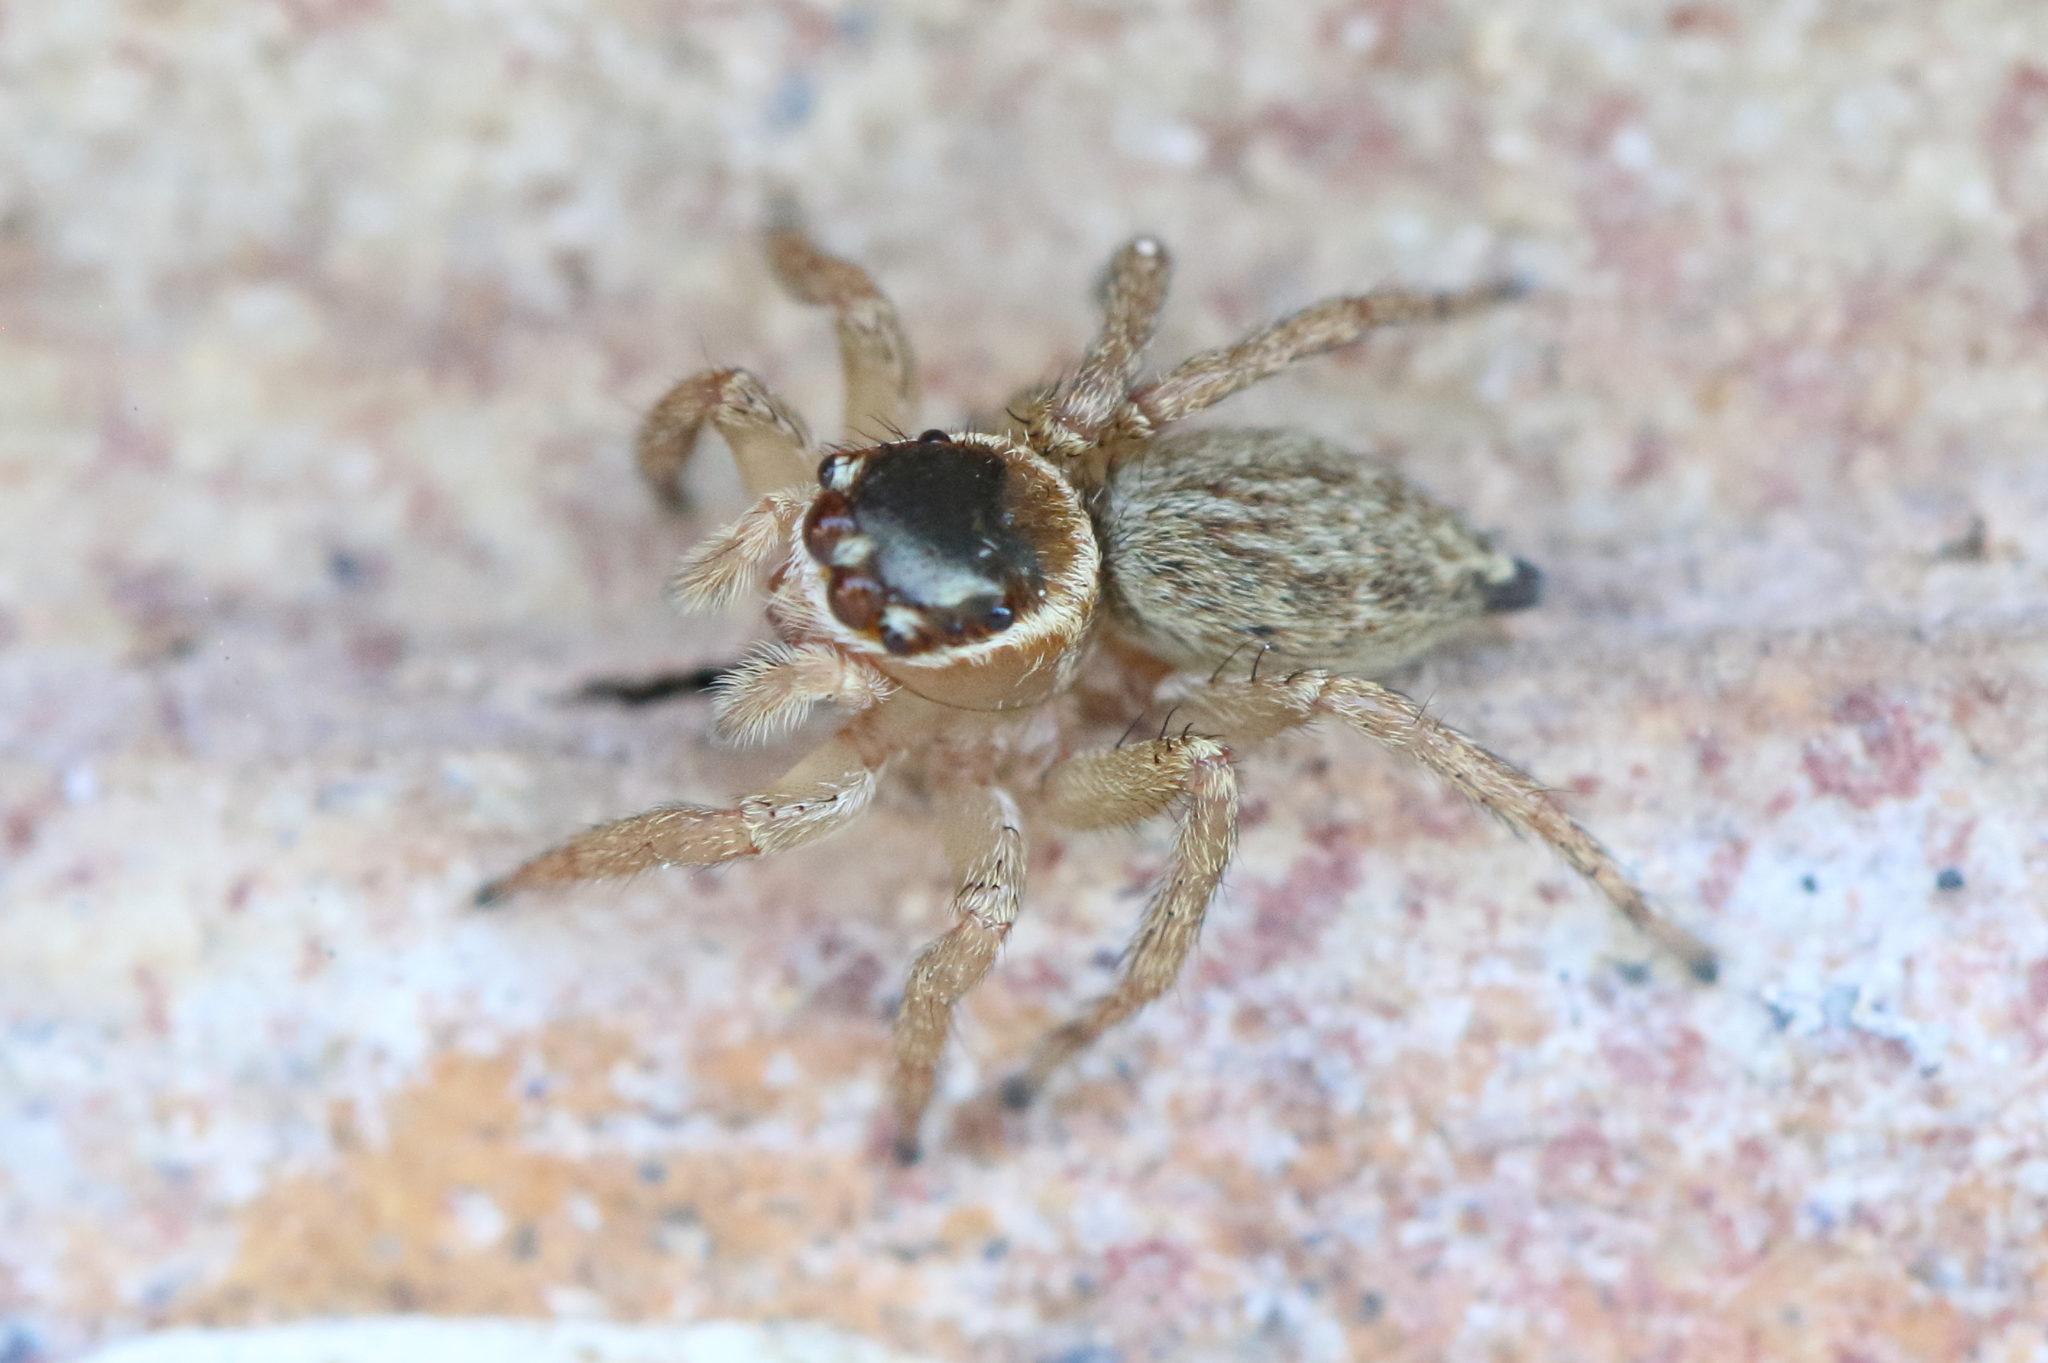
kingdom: Animalia
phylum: Arthropoda
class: Arachnida
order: Araneae
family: Salticidae
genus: Maratus
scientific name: Maratus griseus
